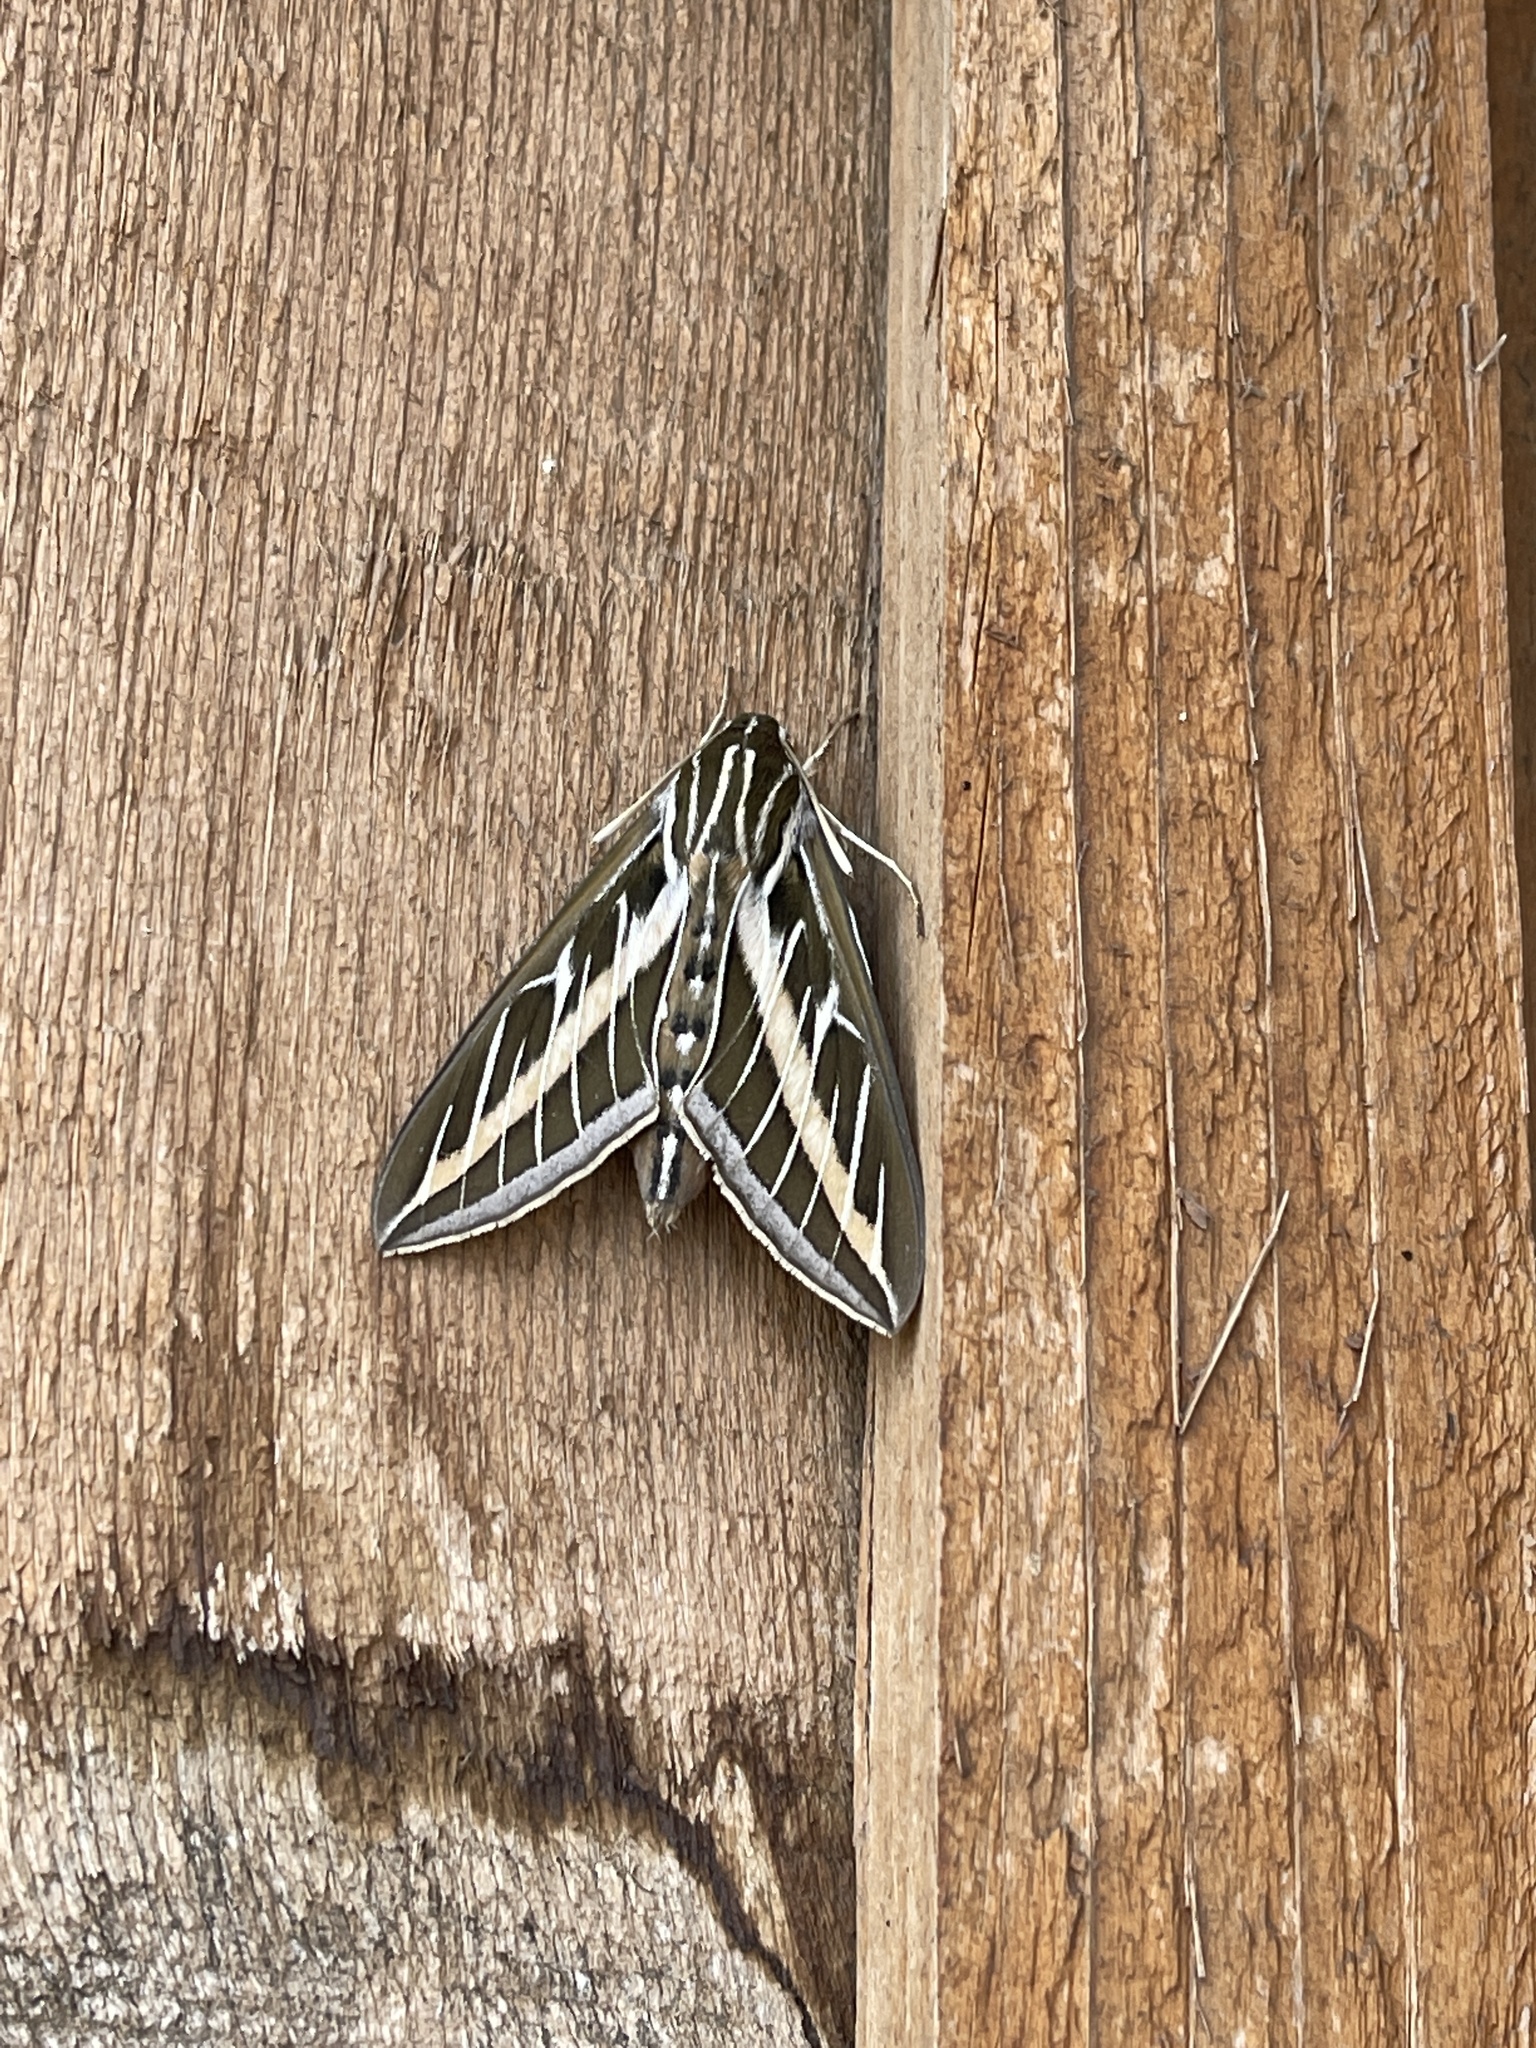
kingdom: Animalia
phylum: Arthropoda
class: Insecta
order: Lepidoptera
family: Sphingidae
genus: Hyles
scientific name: Hyles lineata
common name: White-lined sphinx
